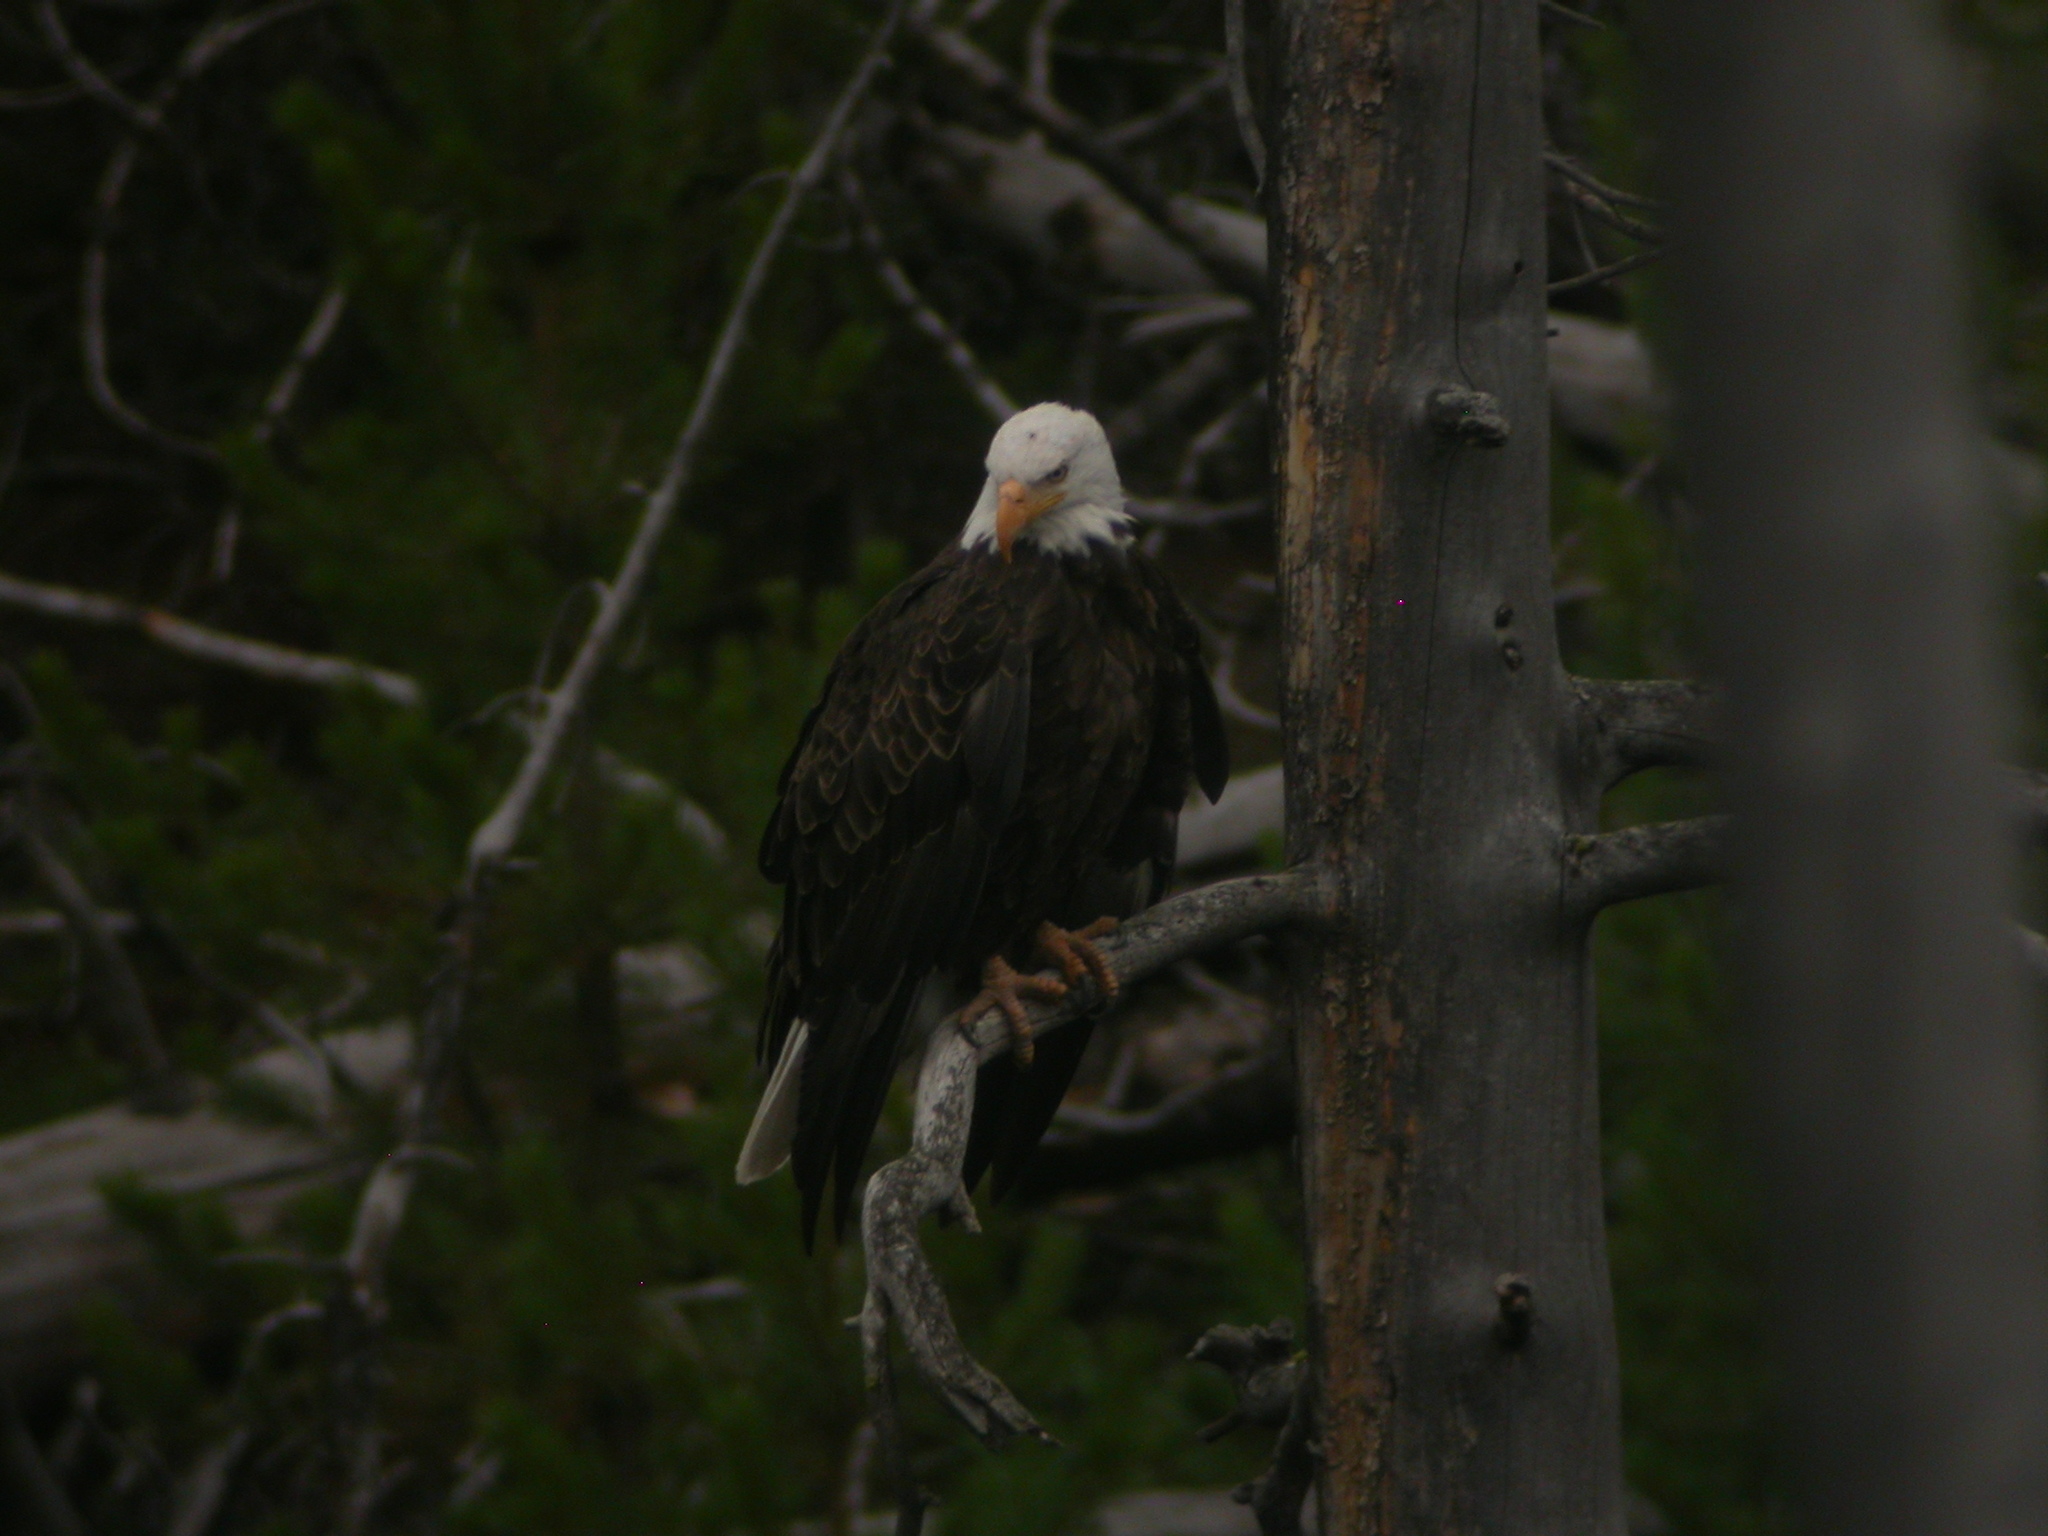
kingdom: Animalia
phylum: Chordata
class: Aves
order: Accipitriformes
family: Accipitridae
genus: Haliaeetus
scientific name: Haliaeetus leucocephalus
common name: Bald eagle
